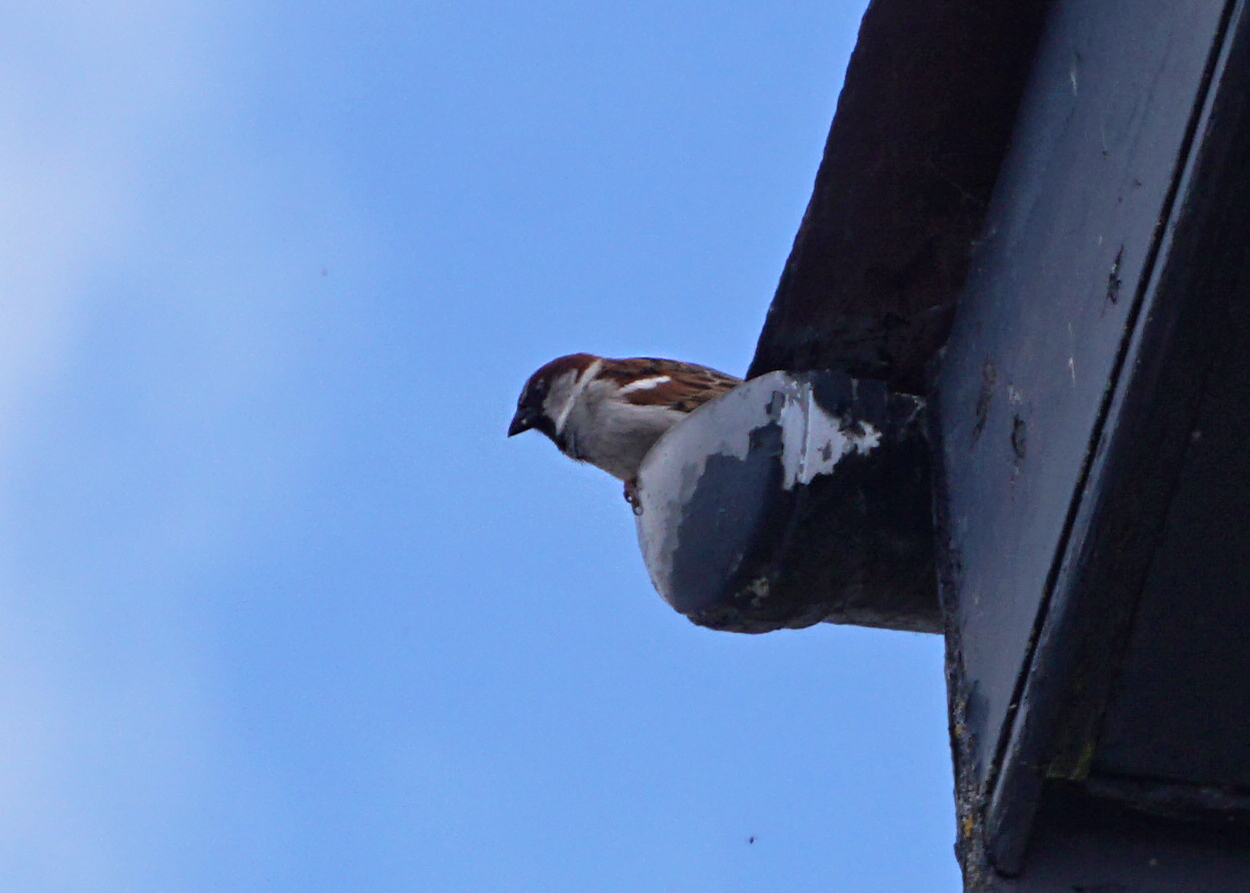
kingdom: Animalia
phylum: Chordata
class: Aves
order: Passeriformes
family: Passeridae
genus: Passer
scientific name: Passer domesticus
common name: House sparrow
